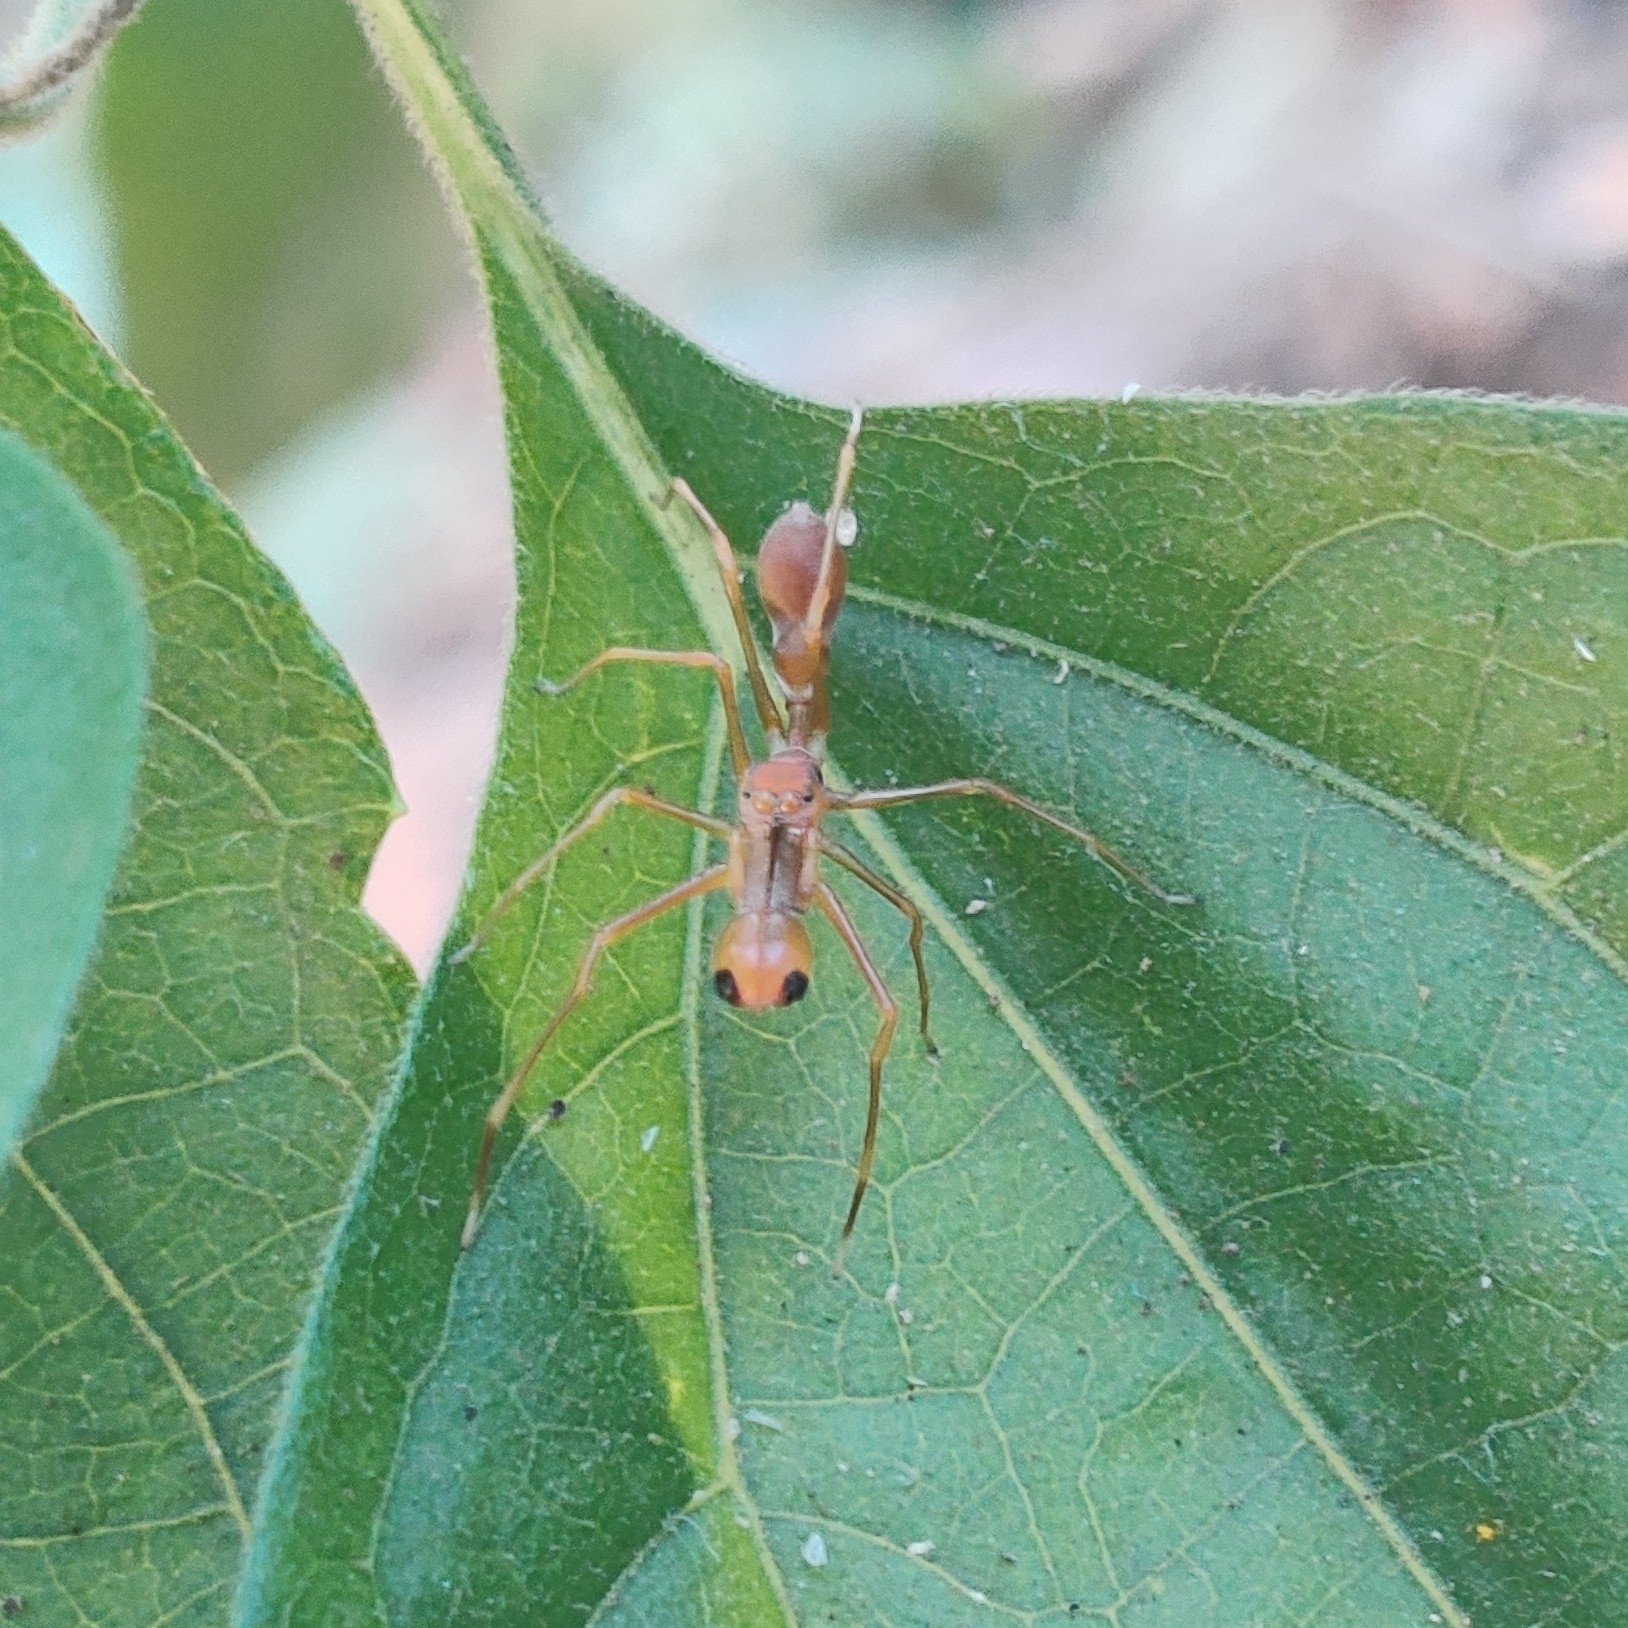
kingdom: Animalia
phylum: Arthropoda
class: Arachnida
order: Araneae
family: Salticidae
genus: Myrmaplata
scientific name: Myrmaplata plataleoides
